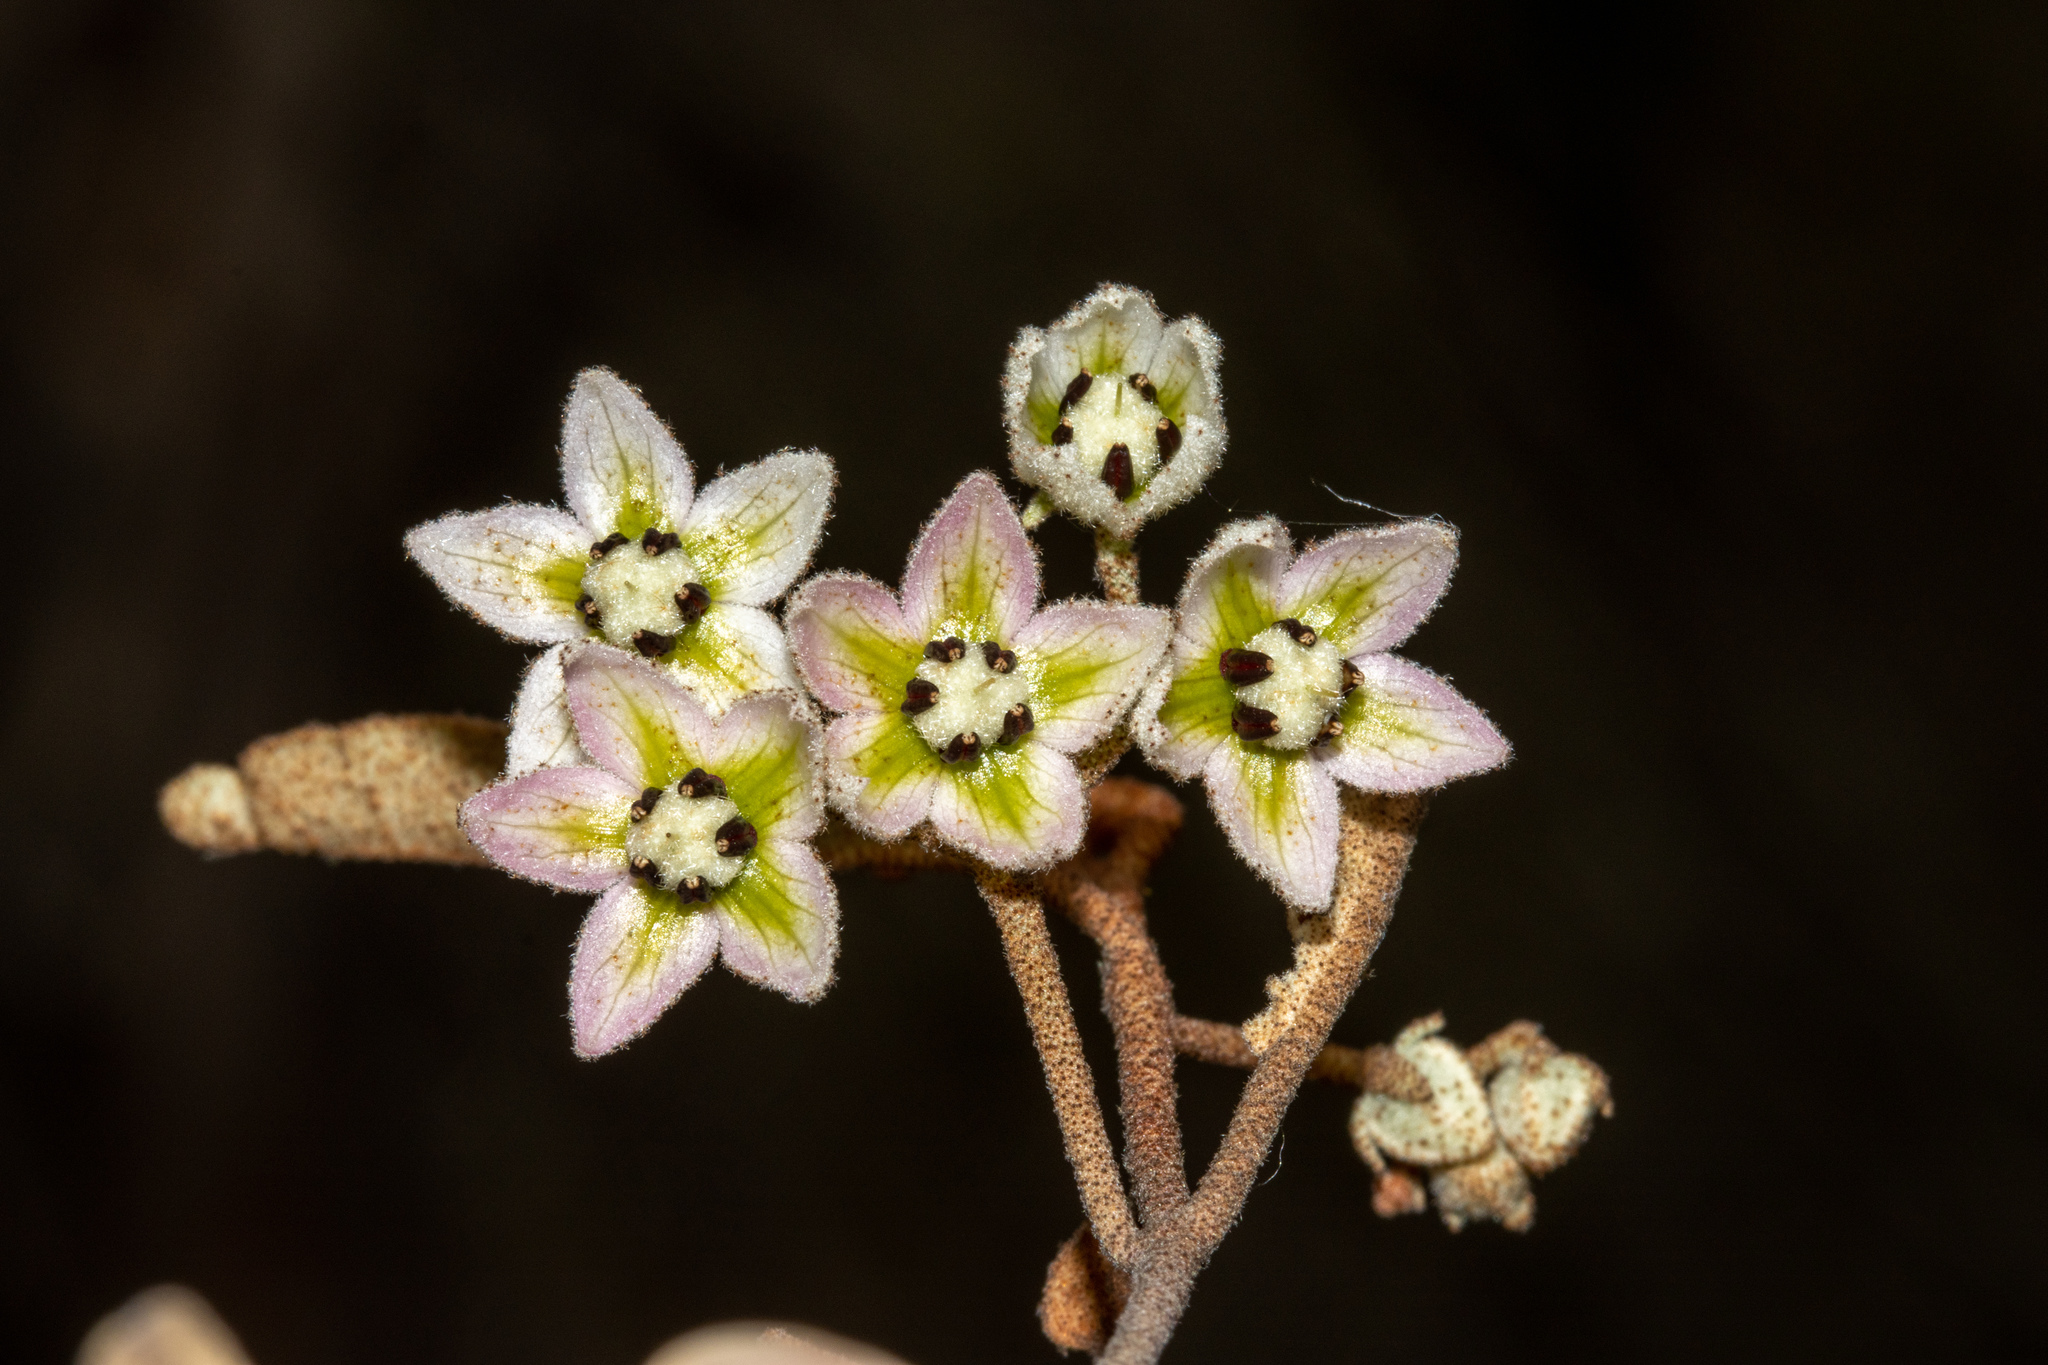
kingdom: Plantae
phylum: Tracheophyta
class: Magnoliopsida
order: Malvales
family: Malvaceae
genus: Lasiopetalum
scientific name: Lasiopetalum behrii
